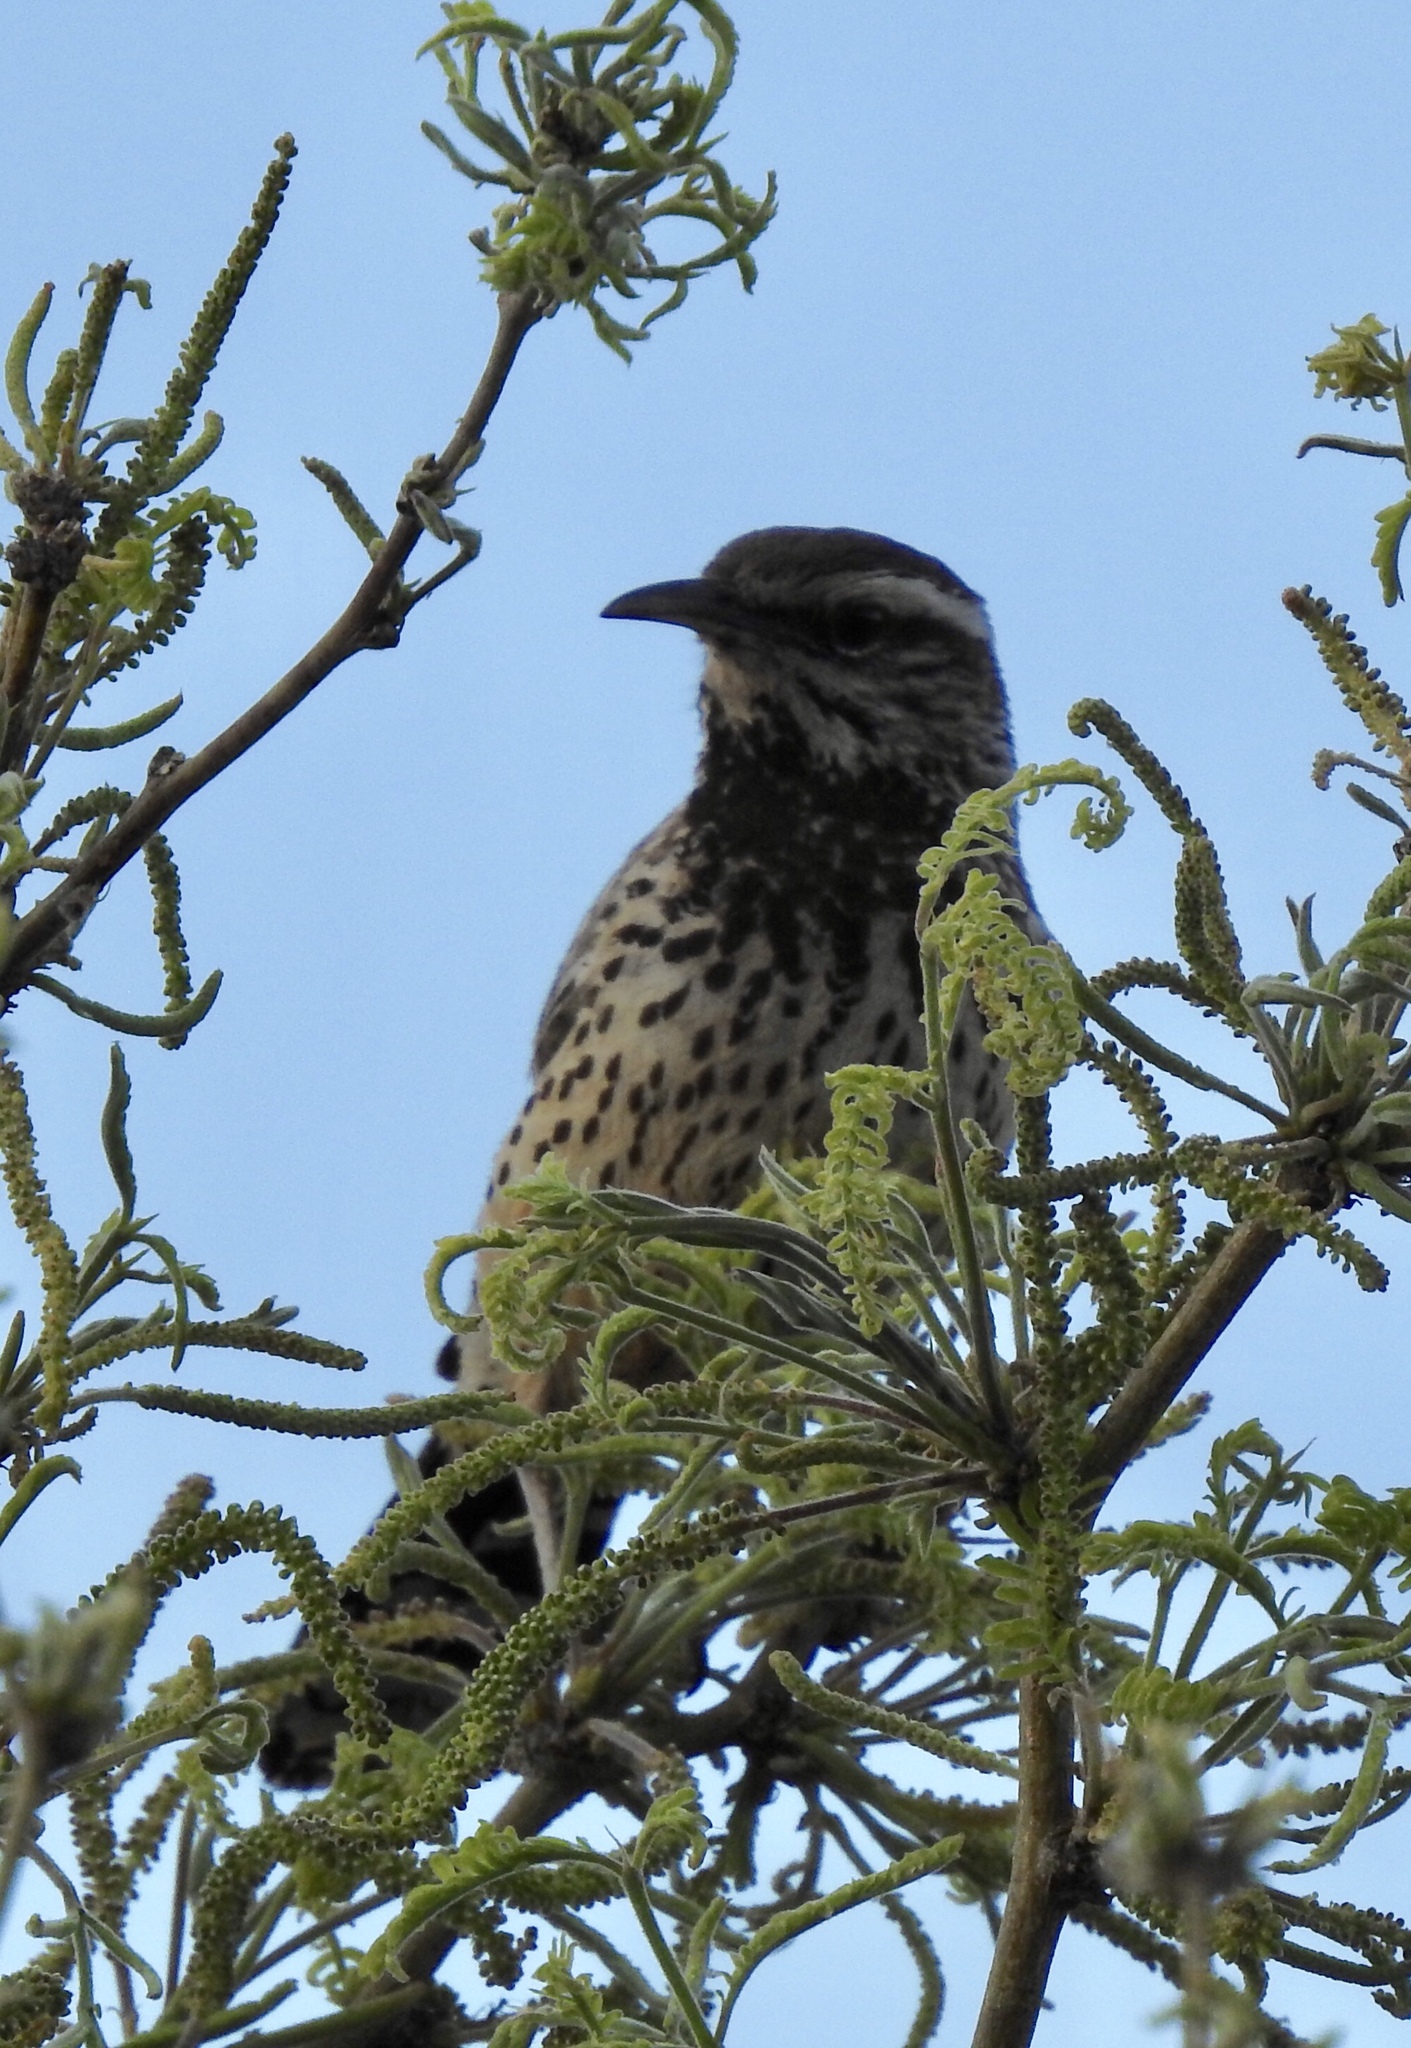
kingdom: Animalia
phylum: Chordata
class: Aves
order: Passeriformes
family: Troglodytidae
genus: Campylorhynchus
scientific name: Campylorhynchus brunneicapillus
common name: Cactus wren
